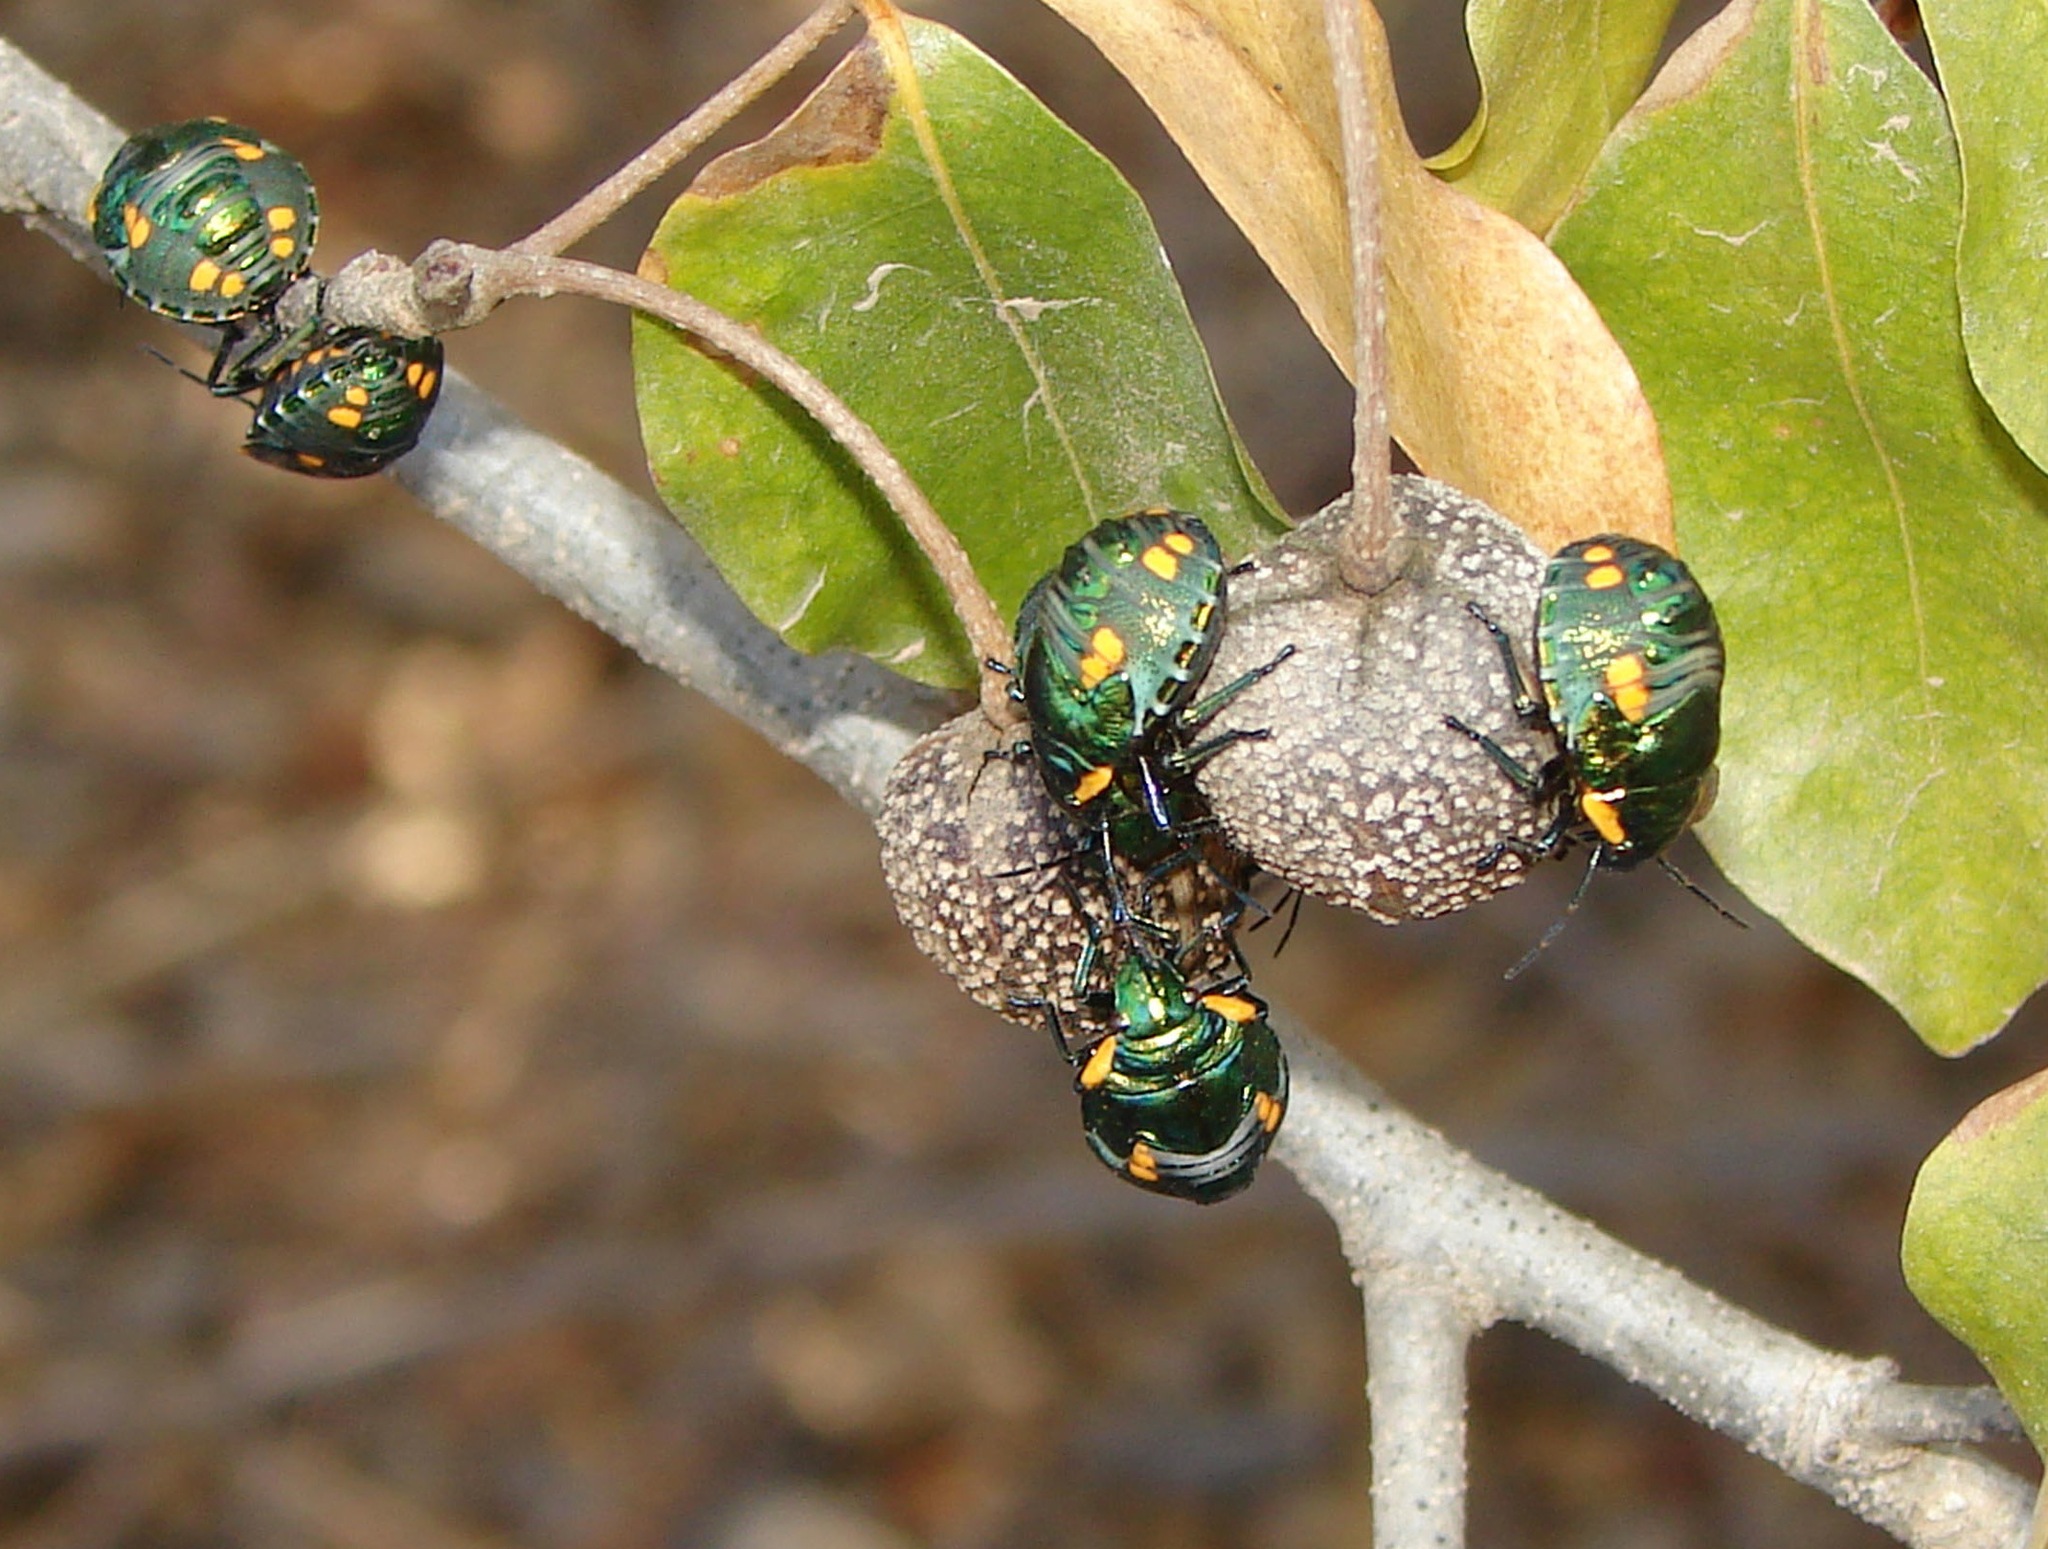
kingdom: Animalia
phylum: Arthropoda
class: Insecta
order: Hemiptera
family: Scutelleridae
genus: Pachycoris
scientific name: Pachycoris torridus
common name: Torrid jewel bug
